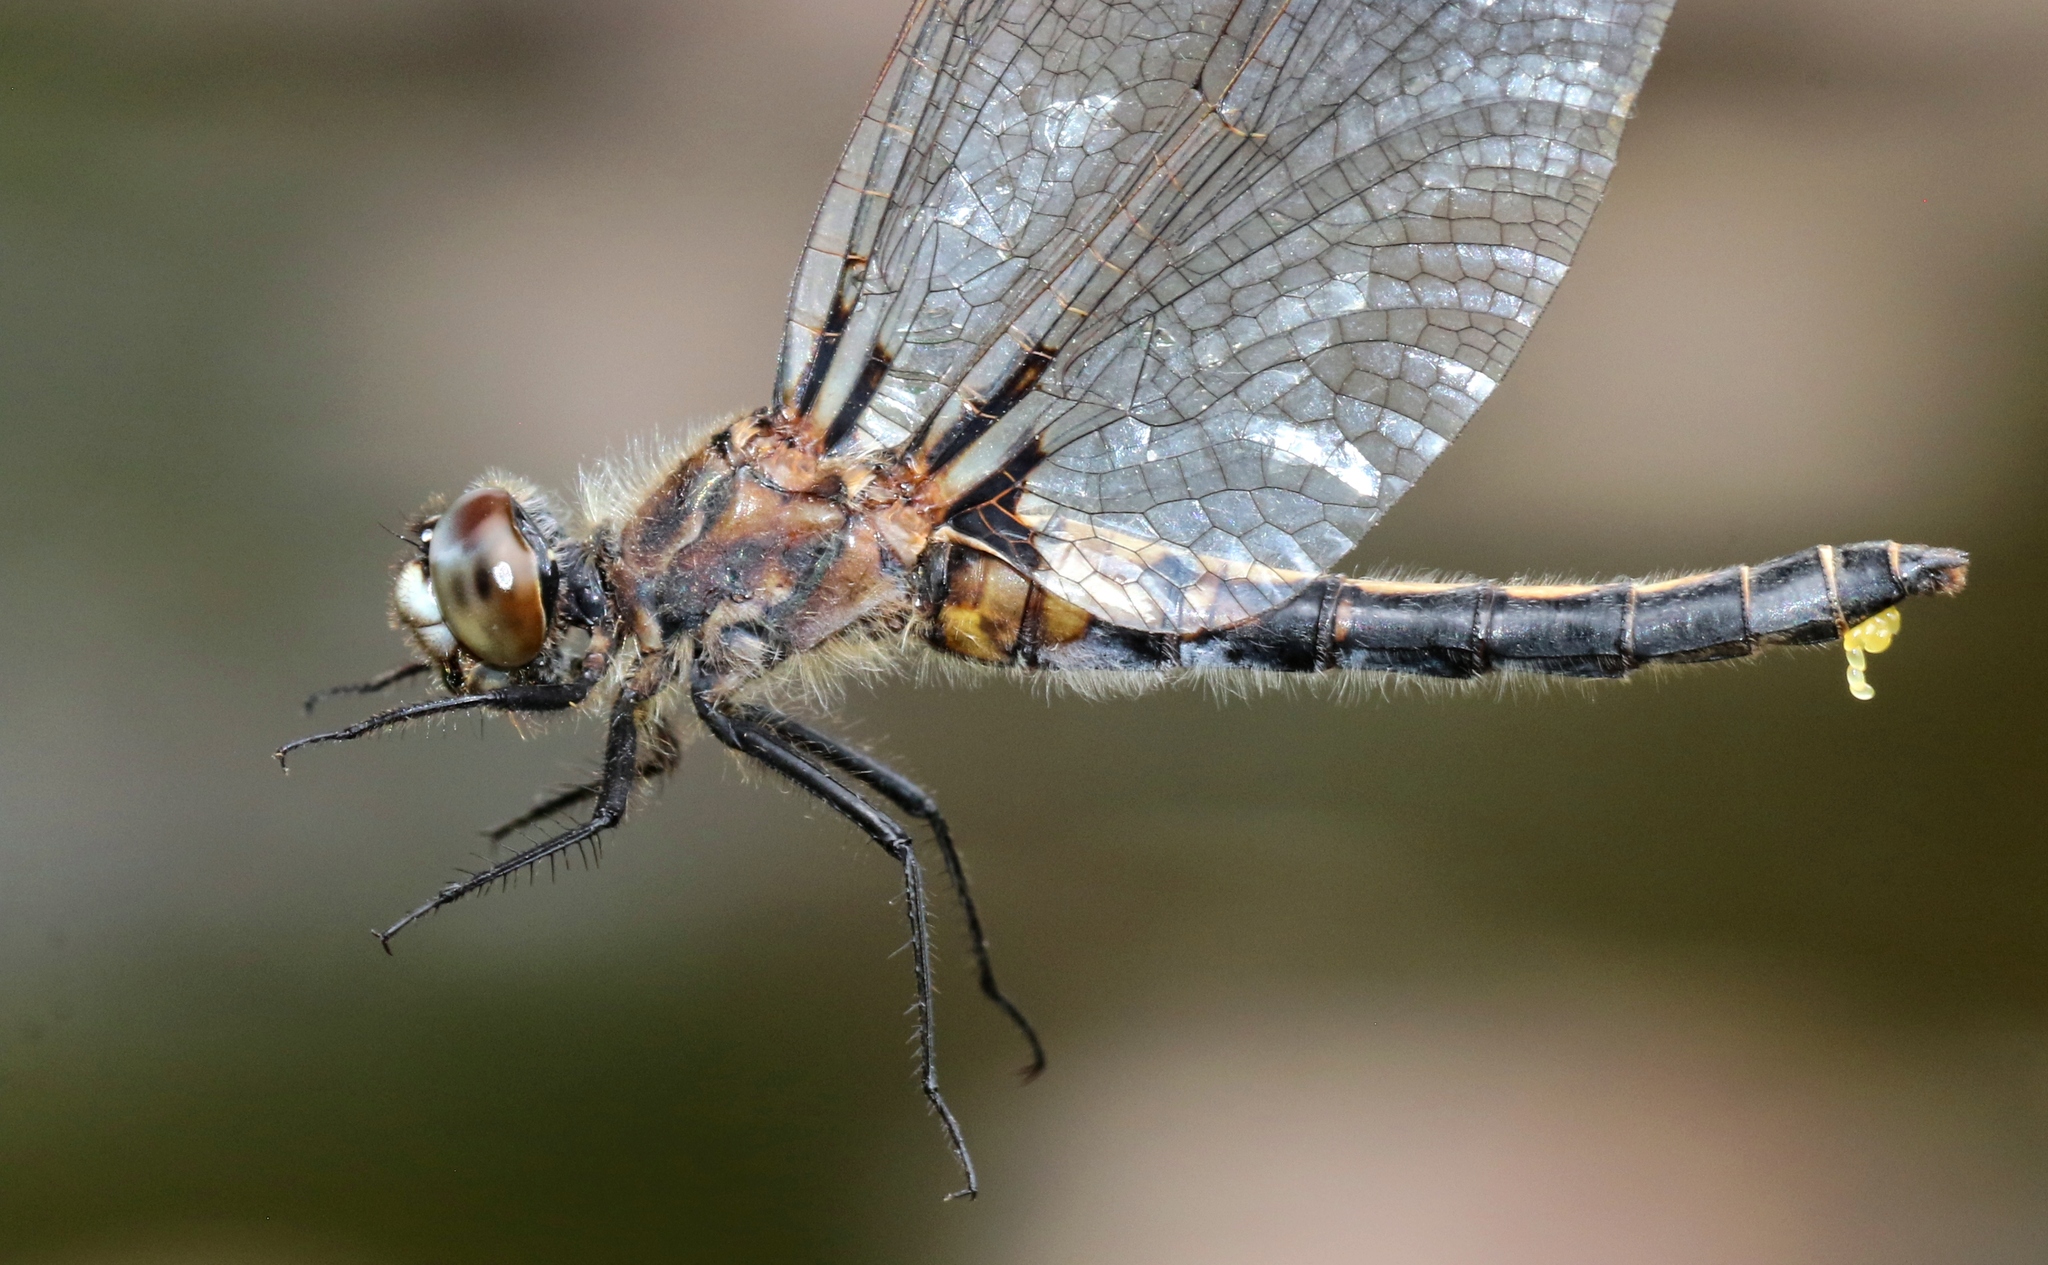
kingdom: Animalia
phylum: Arthropoda
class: Insecta
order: Odonata
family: Libellulidae
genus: Leucorrhinia
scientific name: Leucorrhinia hudsonica
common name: Hudsonian whiteface
